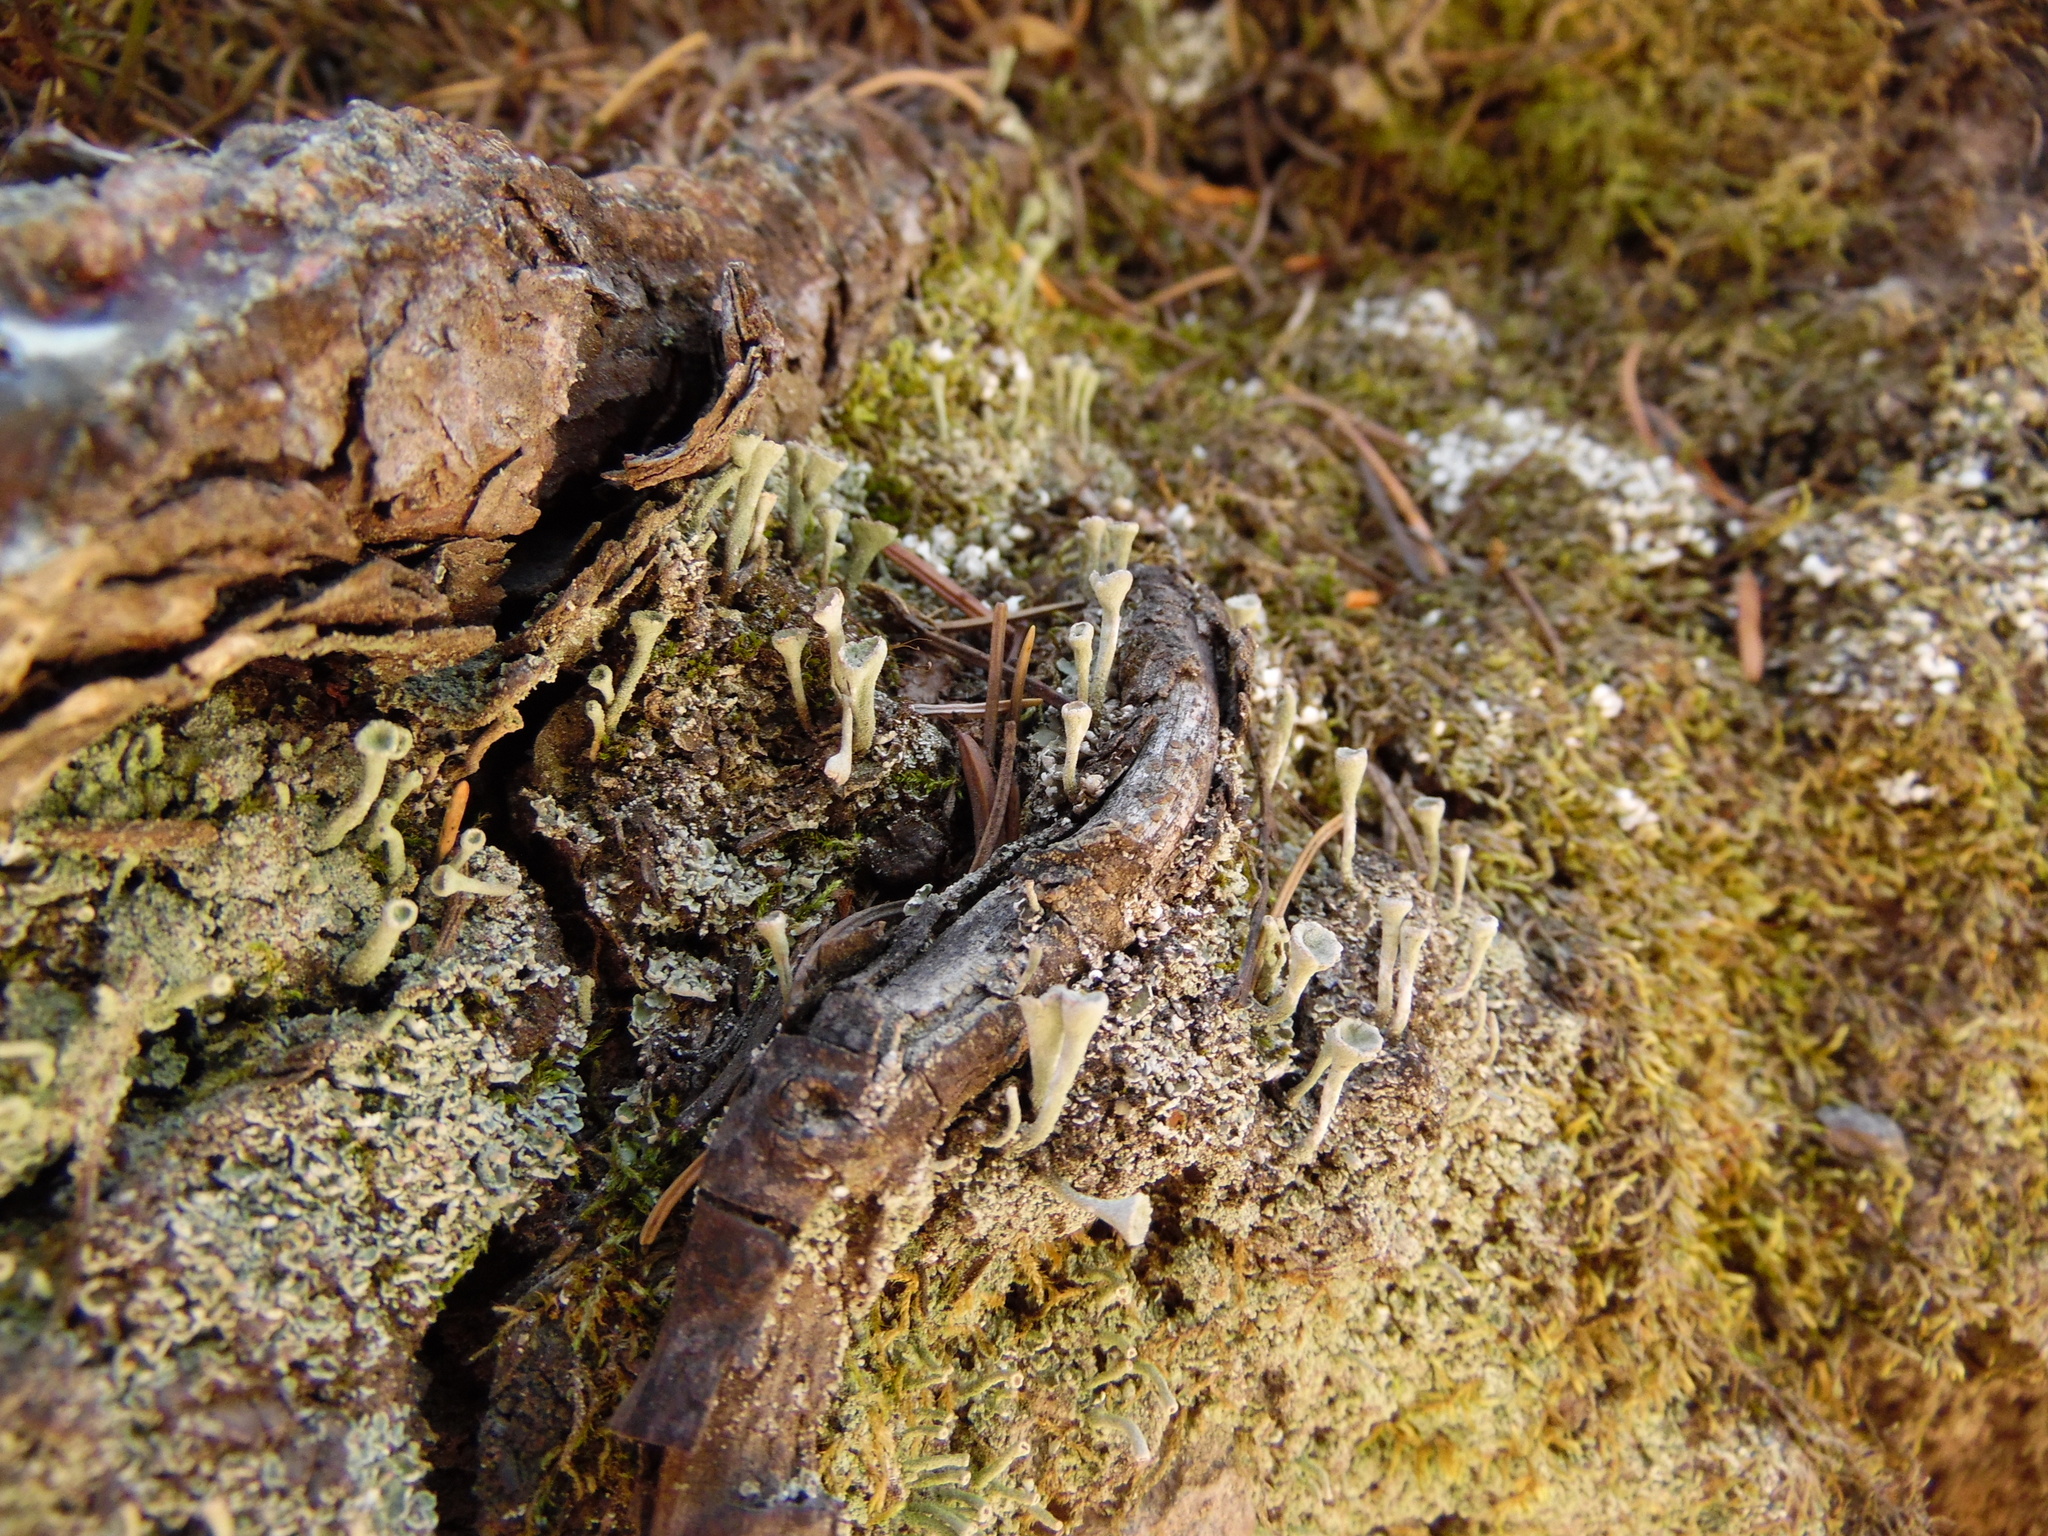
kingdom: Fungi
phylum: Ascomycota
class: Lecanoromycetes
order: Lecanorales
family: Cladoniaceae
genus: Cladonia
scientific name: Cladonia fimbriata
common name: Powdered trumpet lichen
